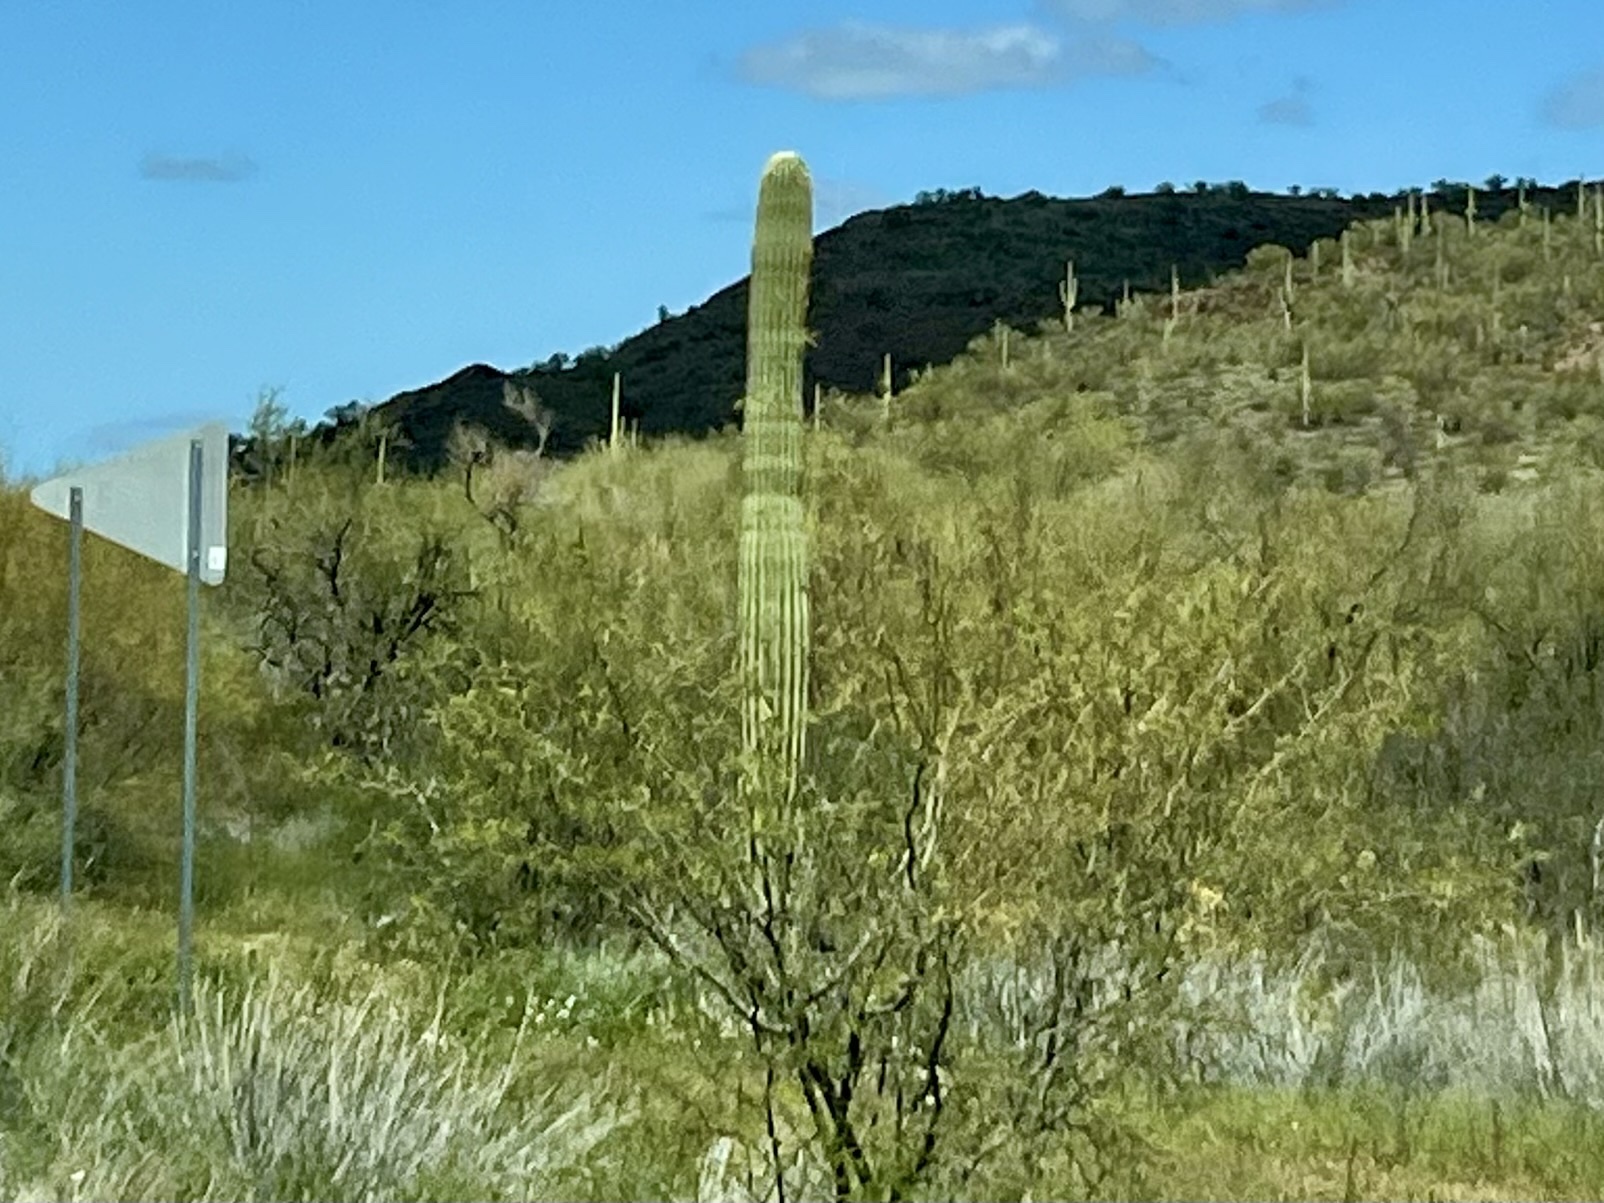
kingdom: Plantae
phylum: Tracheophyta
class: Magnoliopsida
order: Caryophyllales
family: Cactaceae
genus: Carnegiea
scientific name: Carnegiea gigantea
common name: Saguaro
